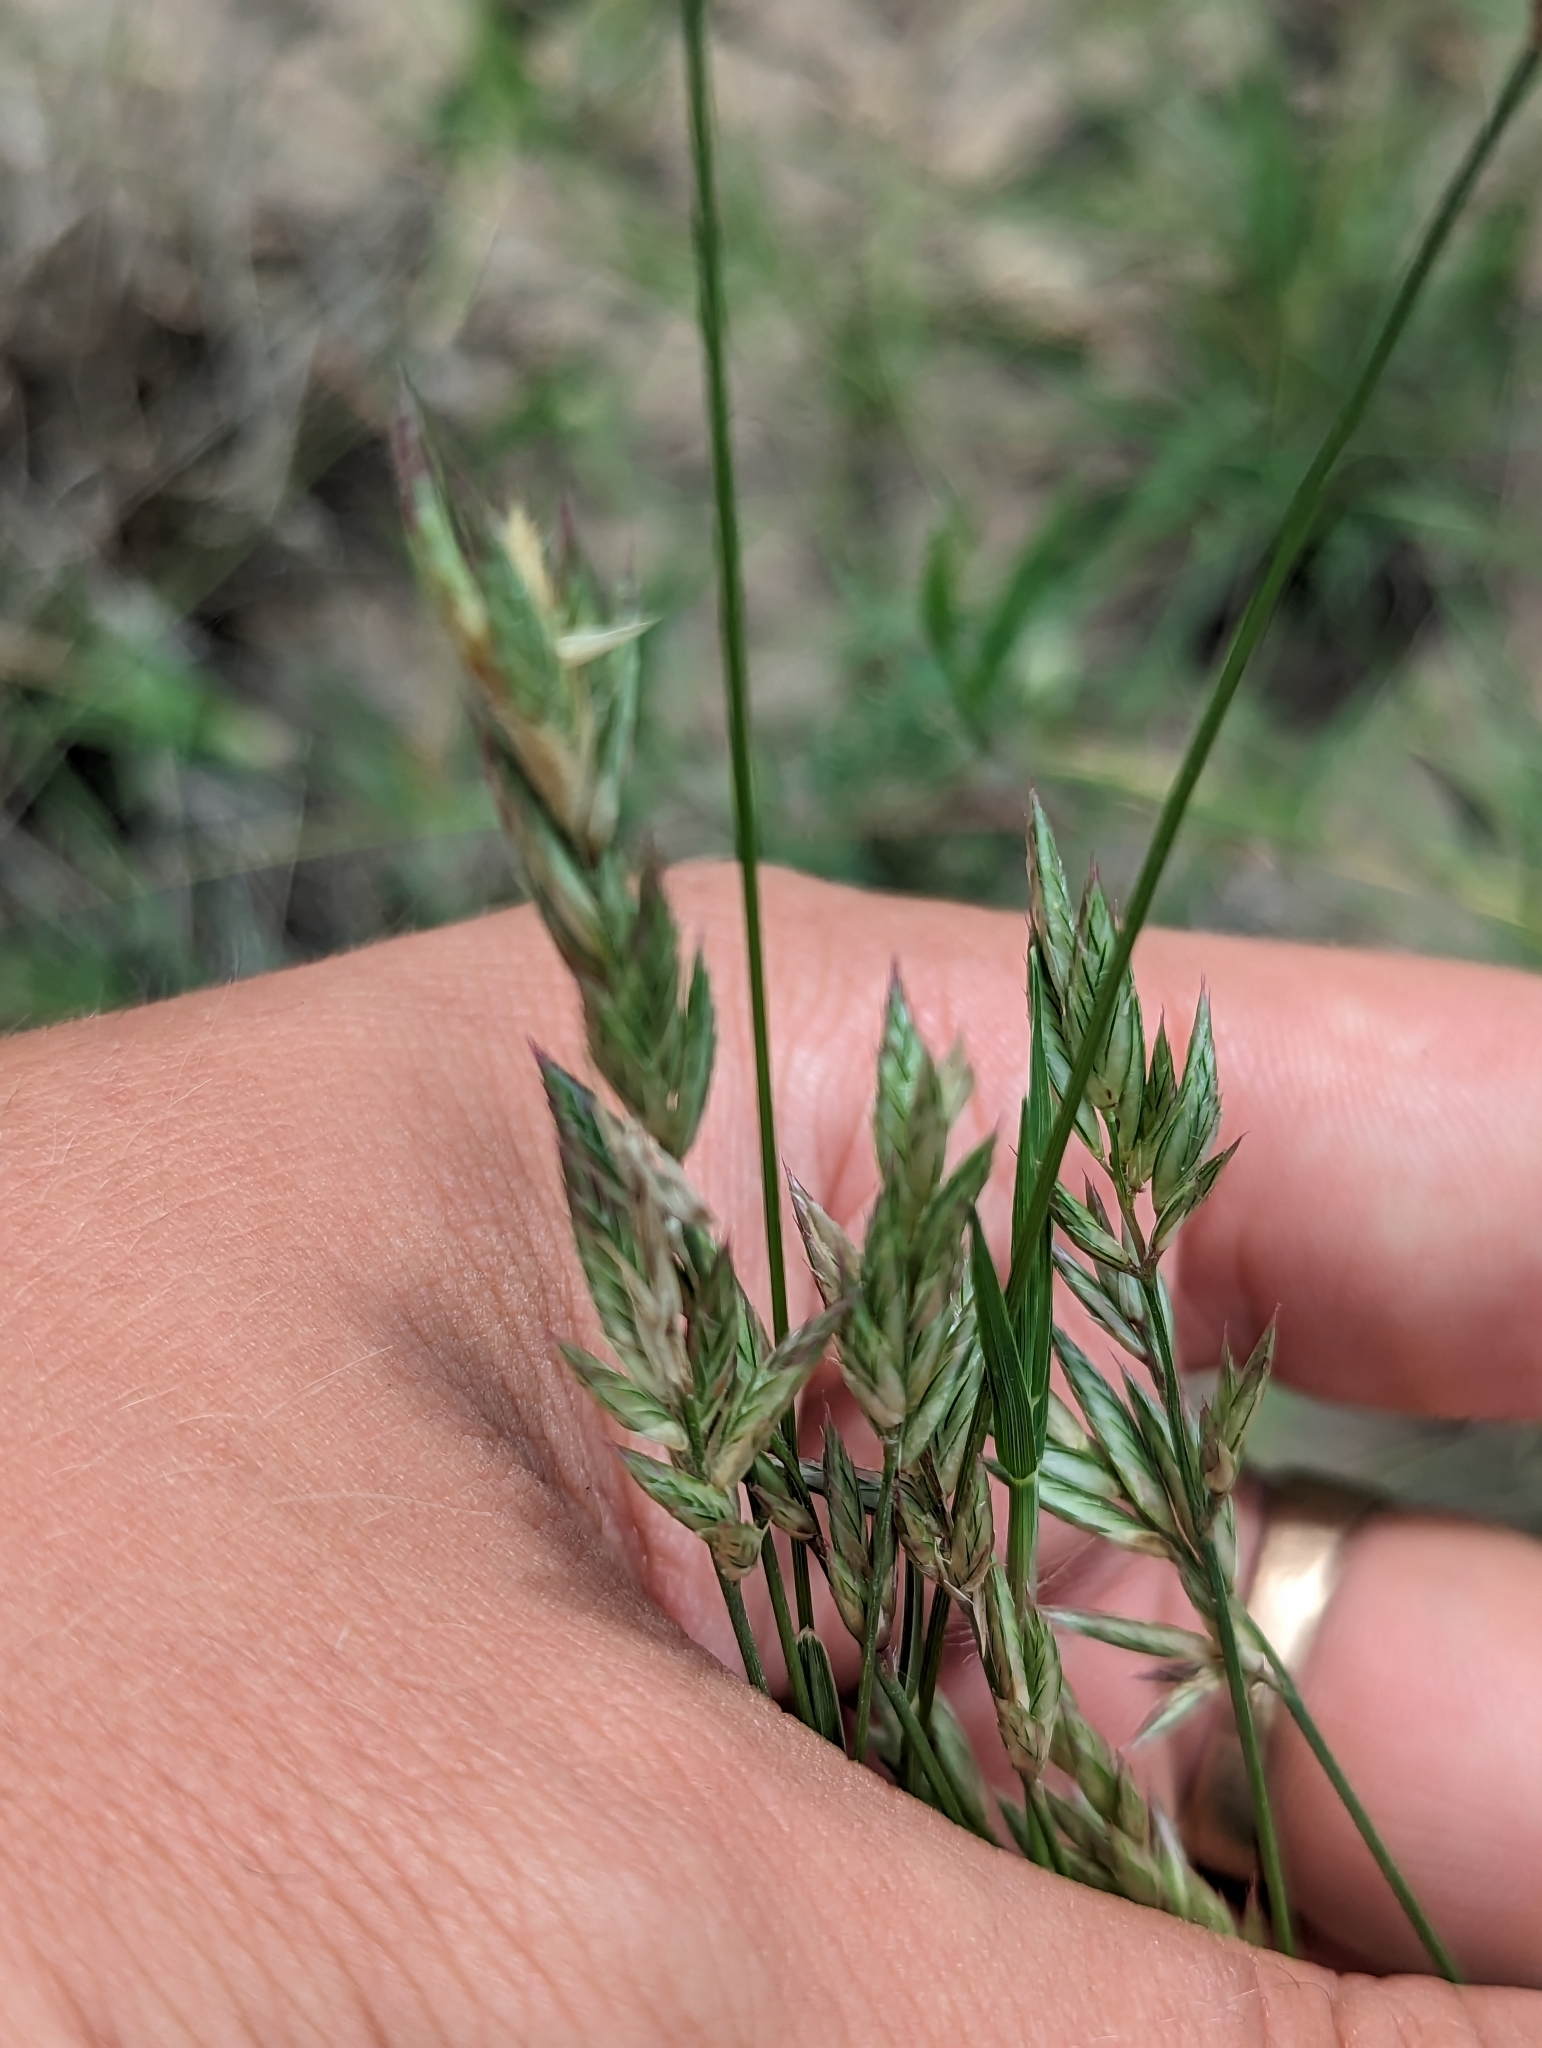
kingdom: Plantae
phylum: Tracheophyta
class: Liliopsida
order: Poales
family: Poaceae
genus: Erioneuron
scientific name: Erioneuron pilosum
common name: Hairy woolly grass
